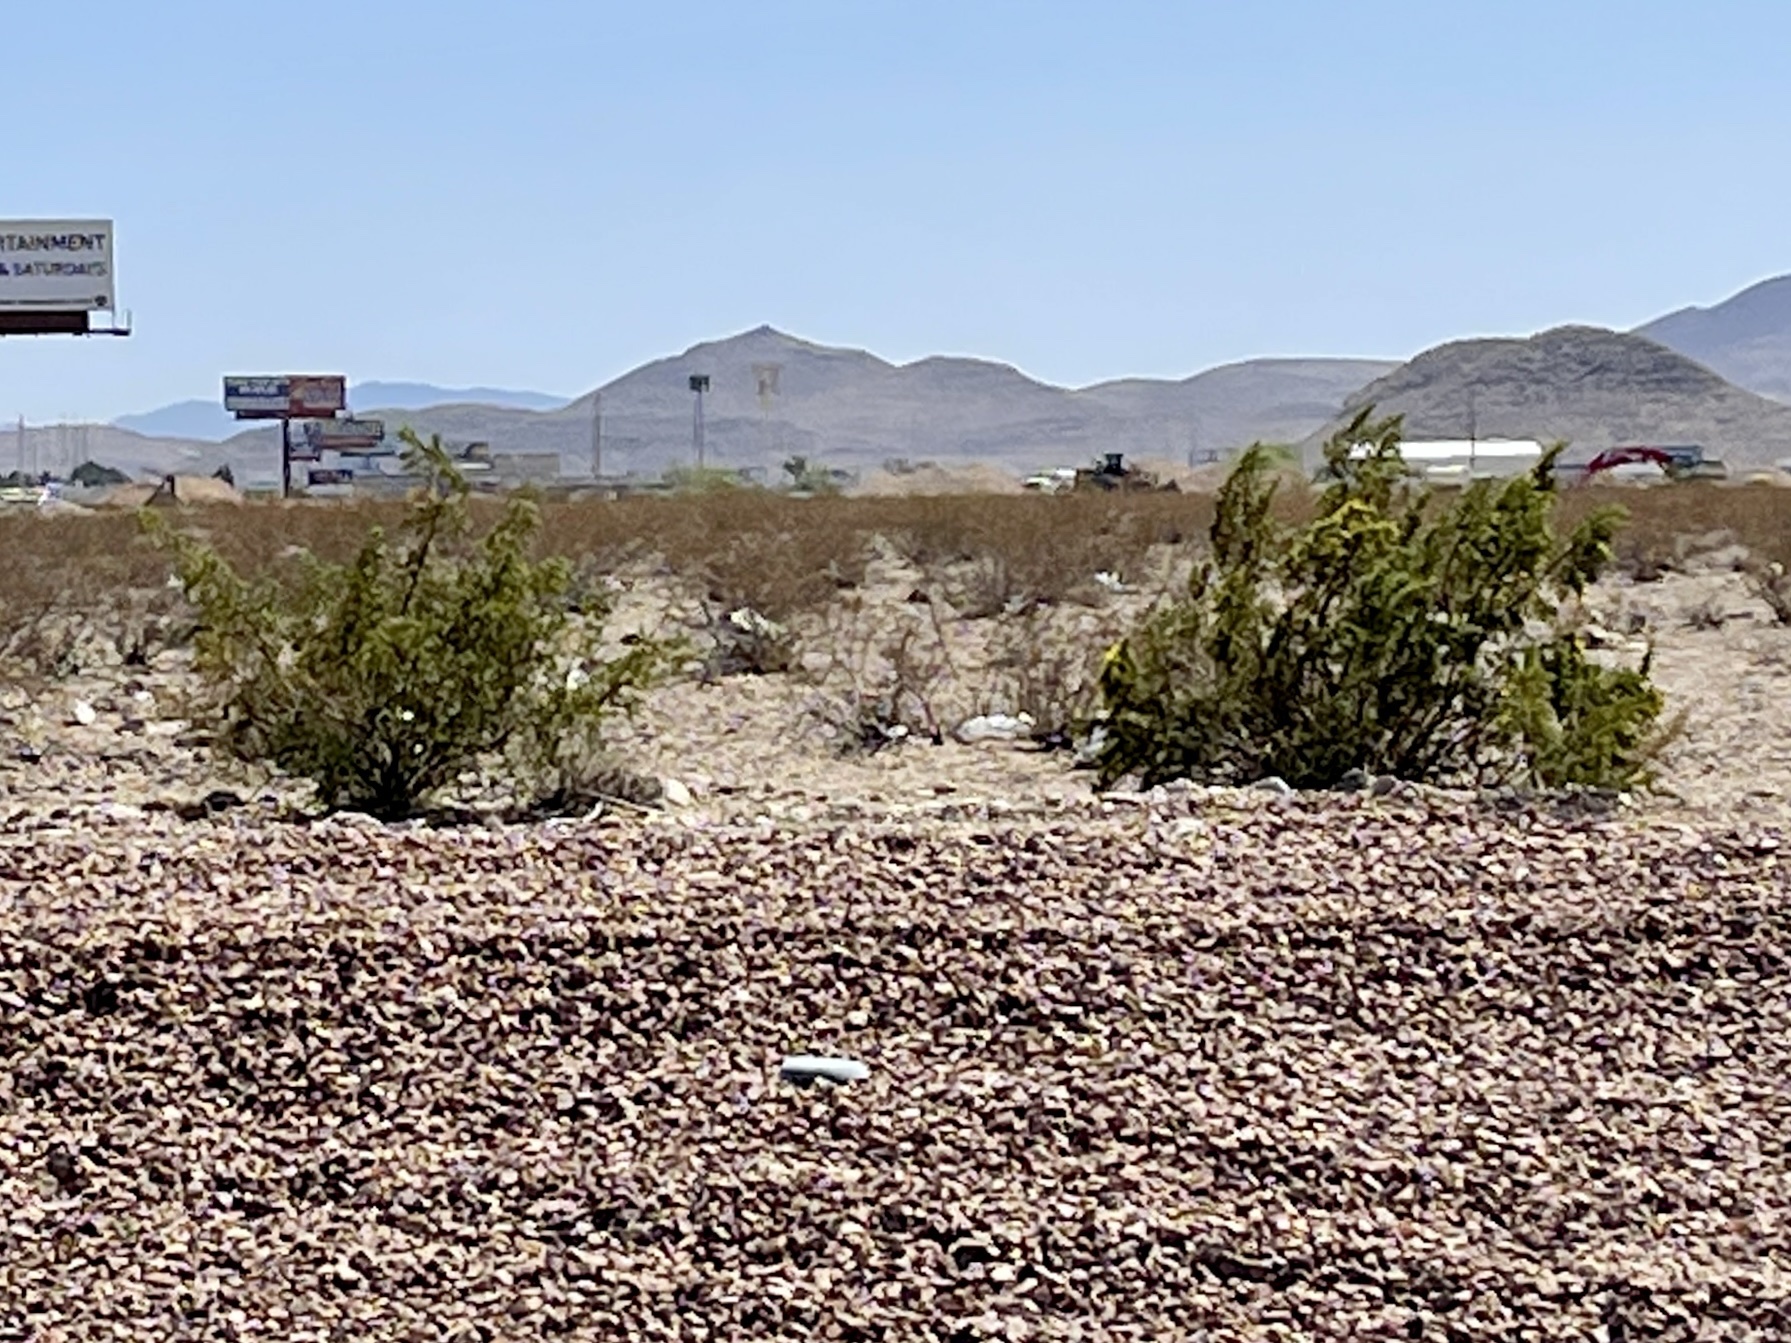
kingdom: Plantae
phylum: Tracheophyta
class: Magnoliopsida
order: Zygophyllales
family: Zygophyllaceae
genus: Larrea
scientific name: Larrea tridentata
